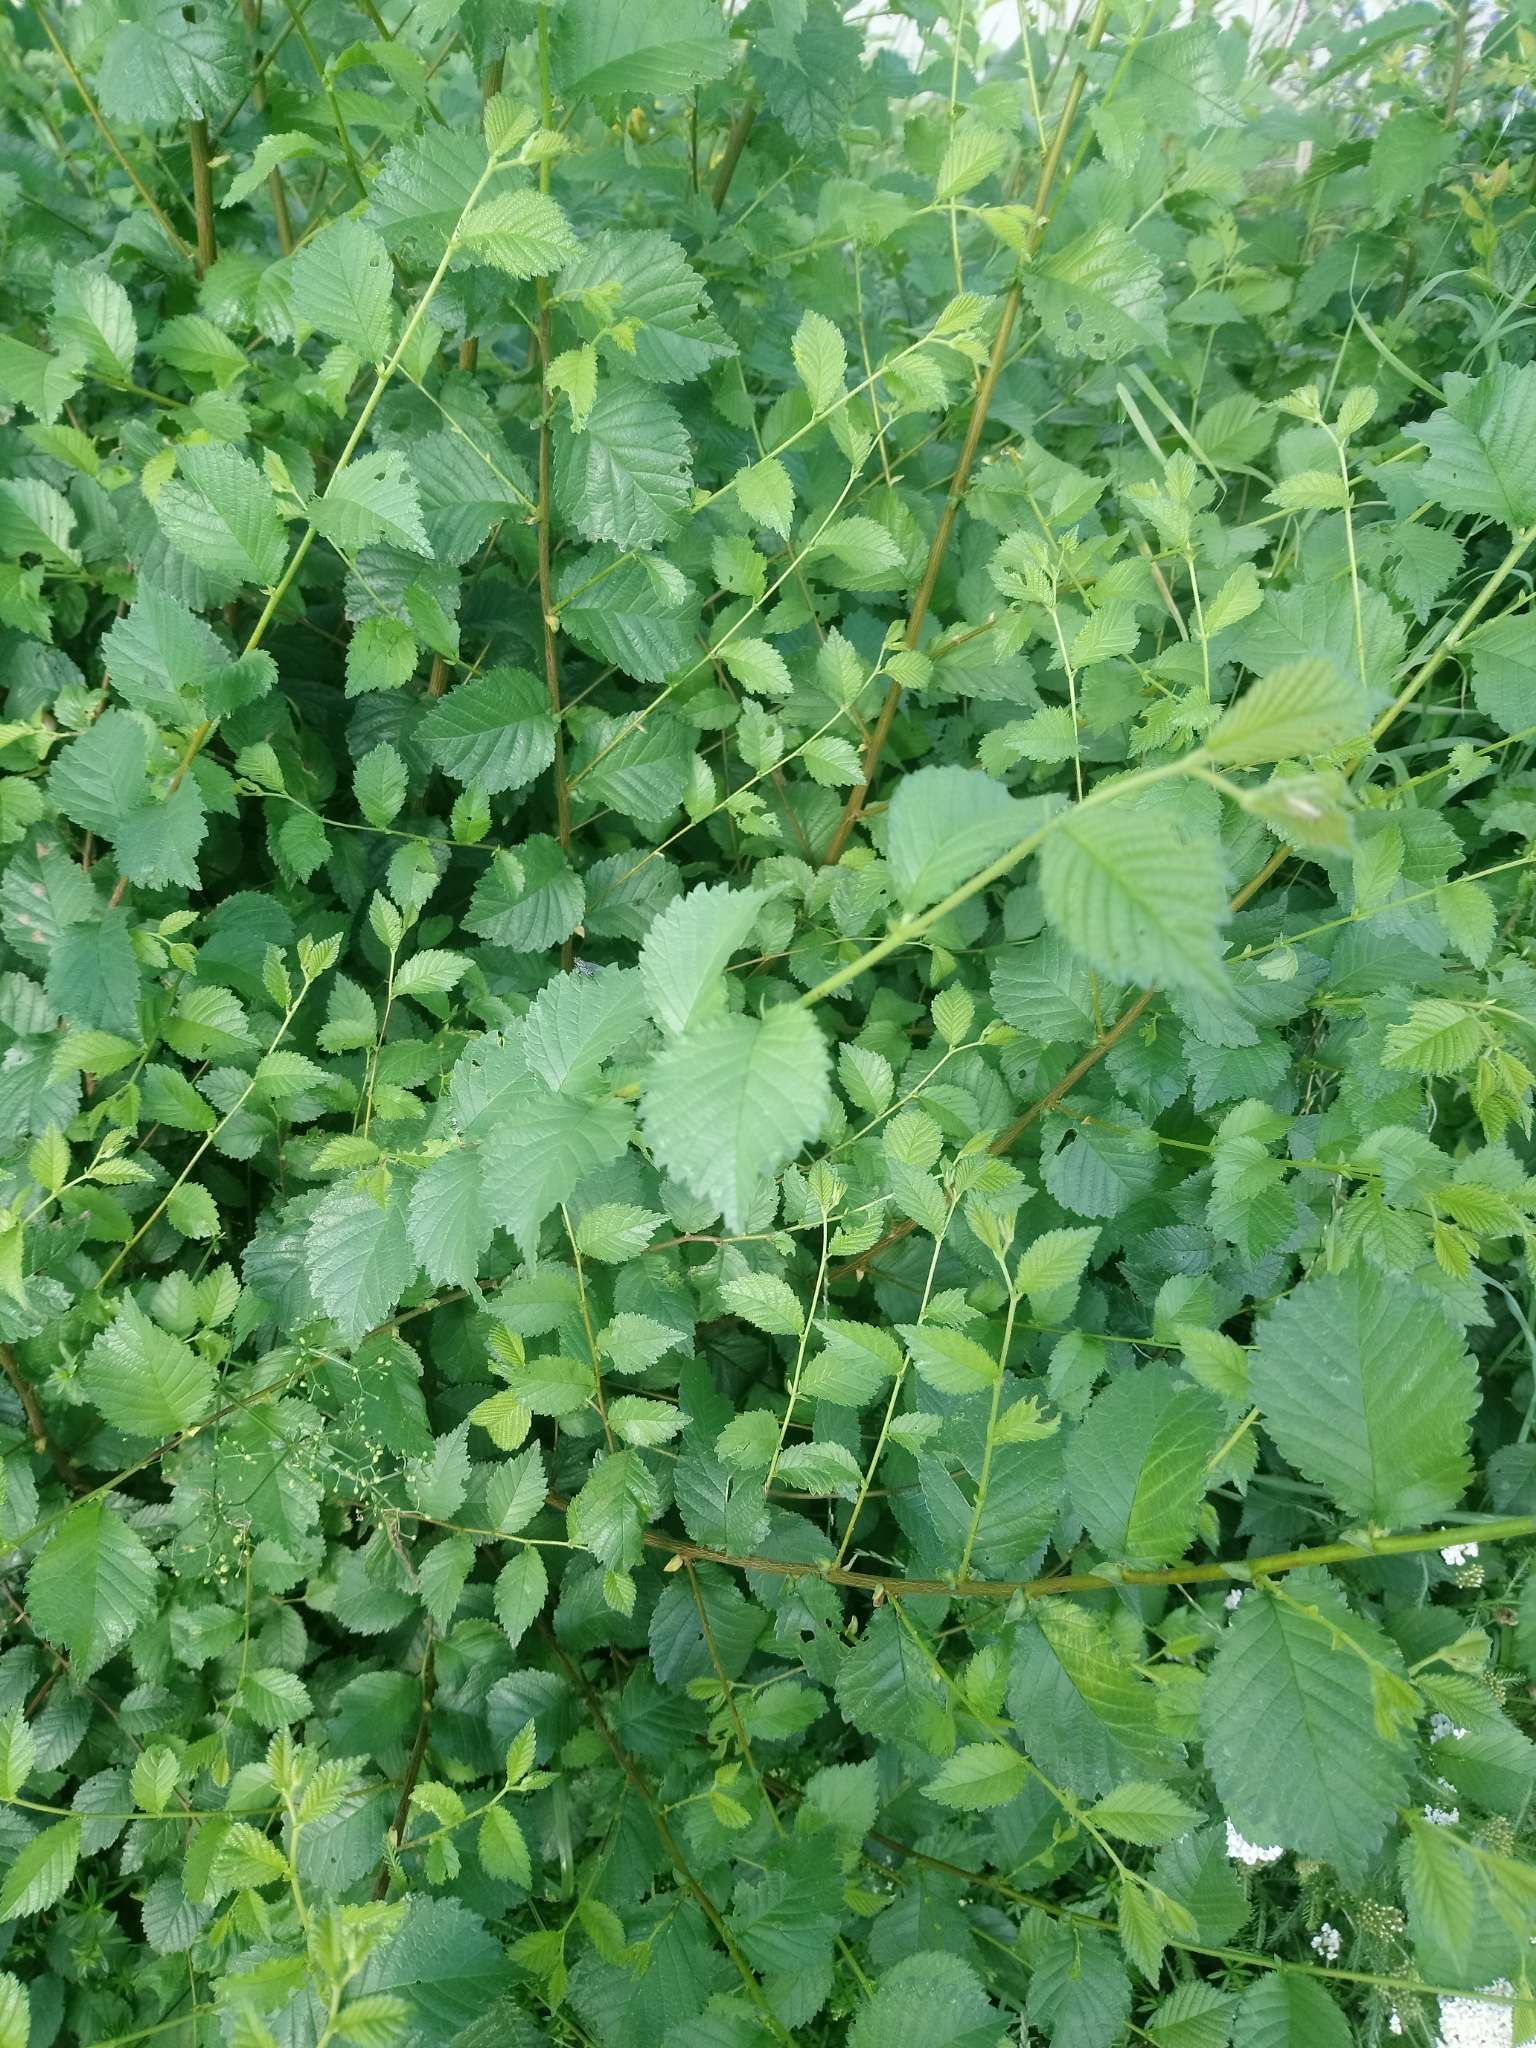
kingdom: Plantae
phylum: Tracheophyta
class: Magnoliopsida
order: Rosales
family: Ulmaceae
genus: Ulmus
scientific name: Ulmus minor
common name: Small-leaved elm
